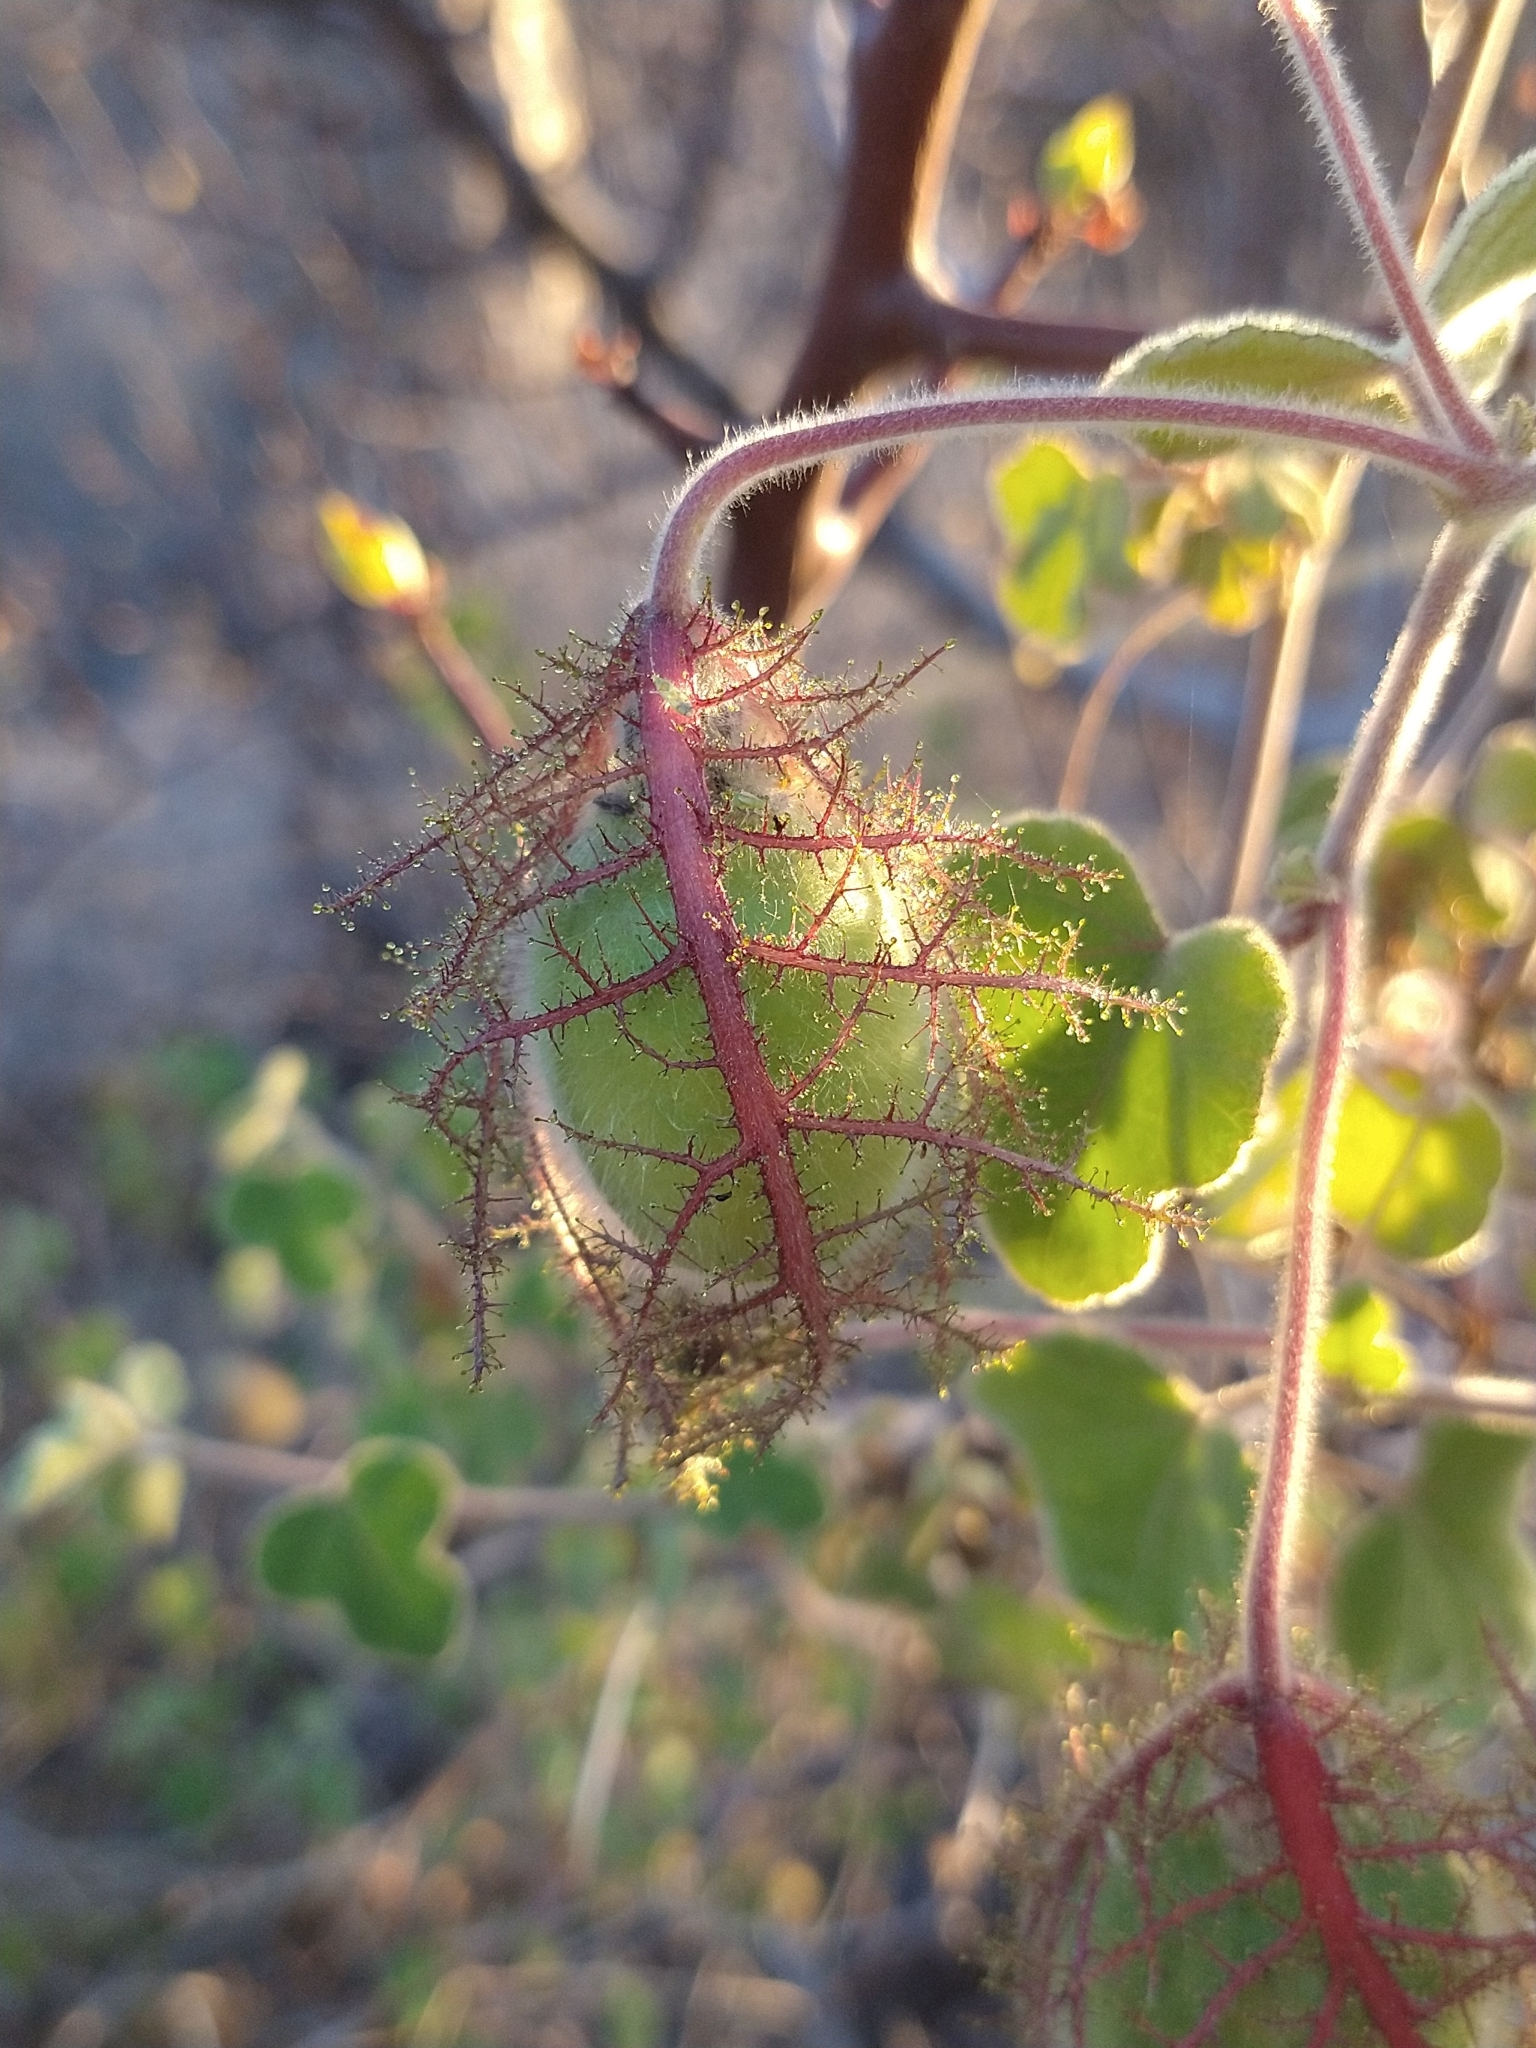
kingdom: Plantae
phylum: Tracheophyta
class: Magnoliopsida
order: Malpighiales
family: Passifloraceae
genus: Passiflora
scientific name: Passiflora arida
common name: Desert passionflower
